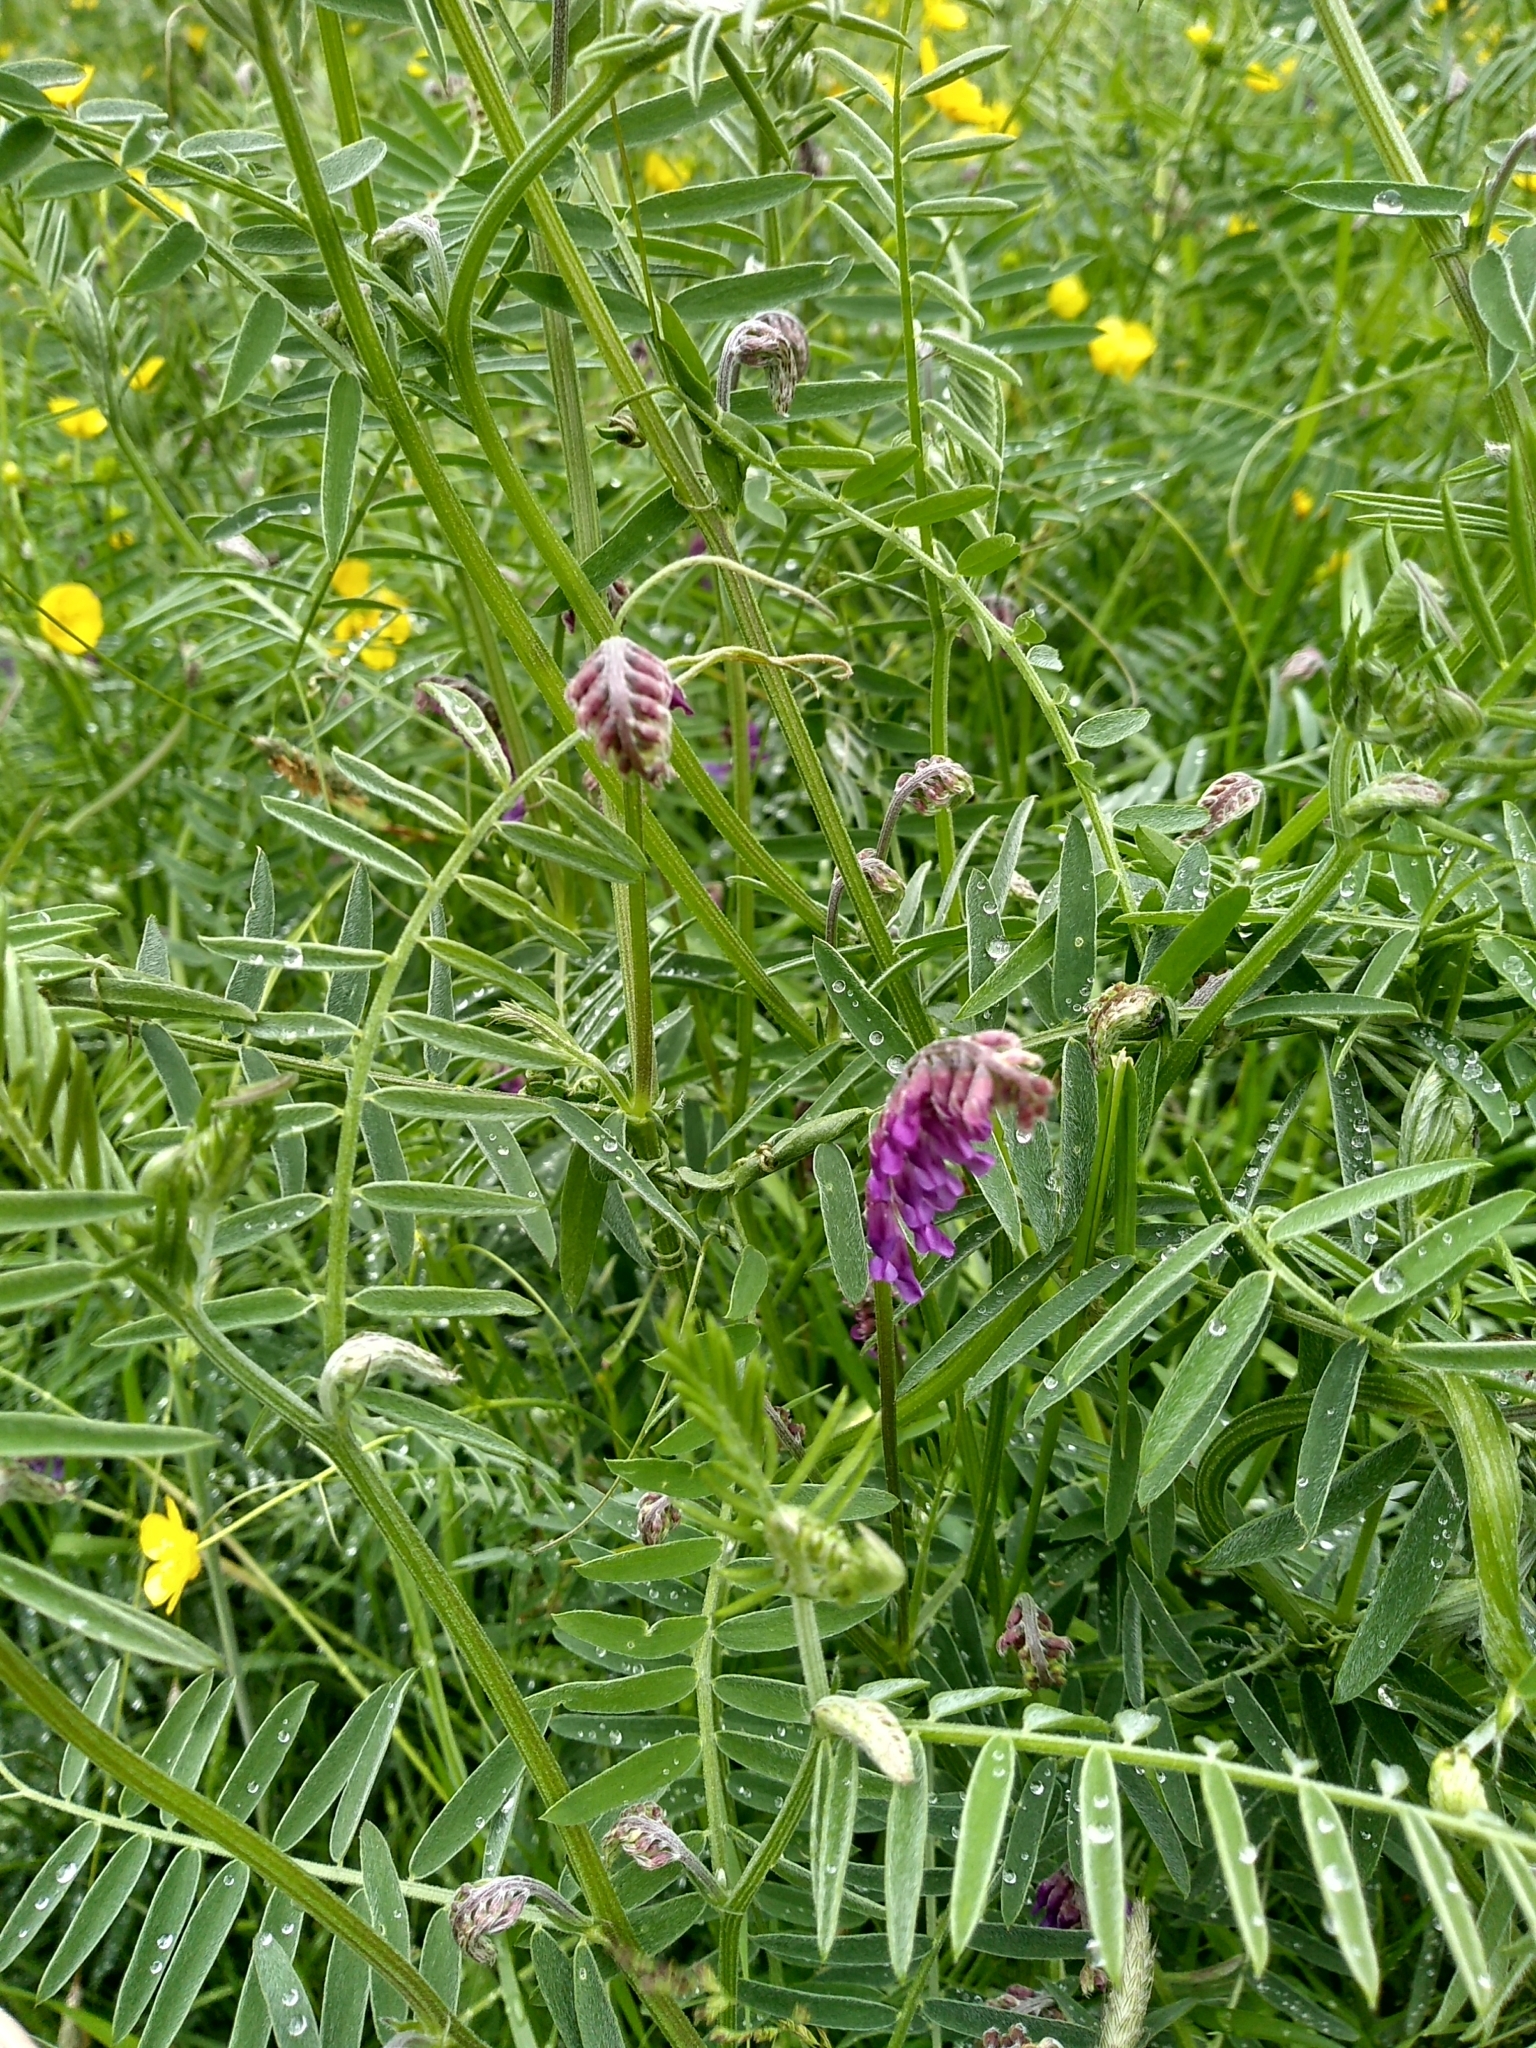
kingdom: Plantae
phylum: Tracheophyta
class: Magnoliopsida
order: Fabales
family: Fabaceae
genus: Vicia
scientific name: Vicia cracca
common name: Bird vetch
